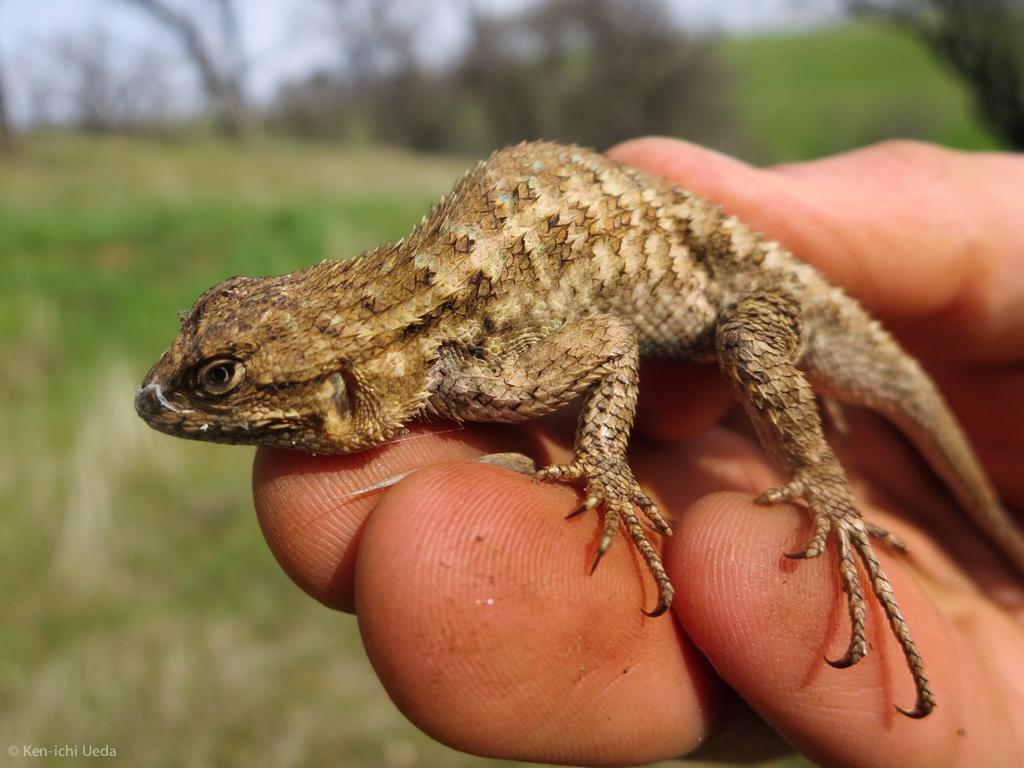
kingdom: Animalia
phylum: Chordata
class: Squamata
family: Phrynosomatidae
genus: Sceloporus
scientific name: Sceloporus occidentalis
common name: Western fence lizard
